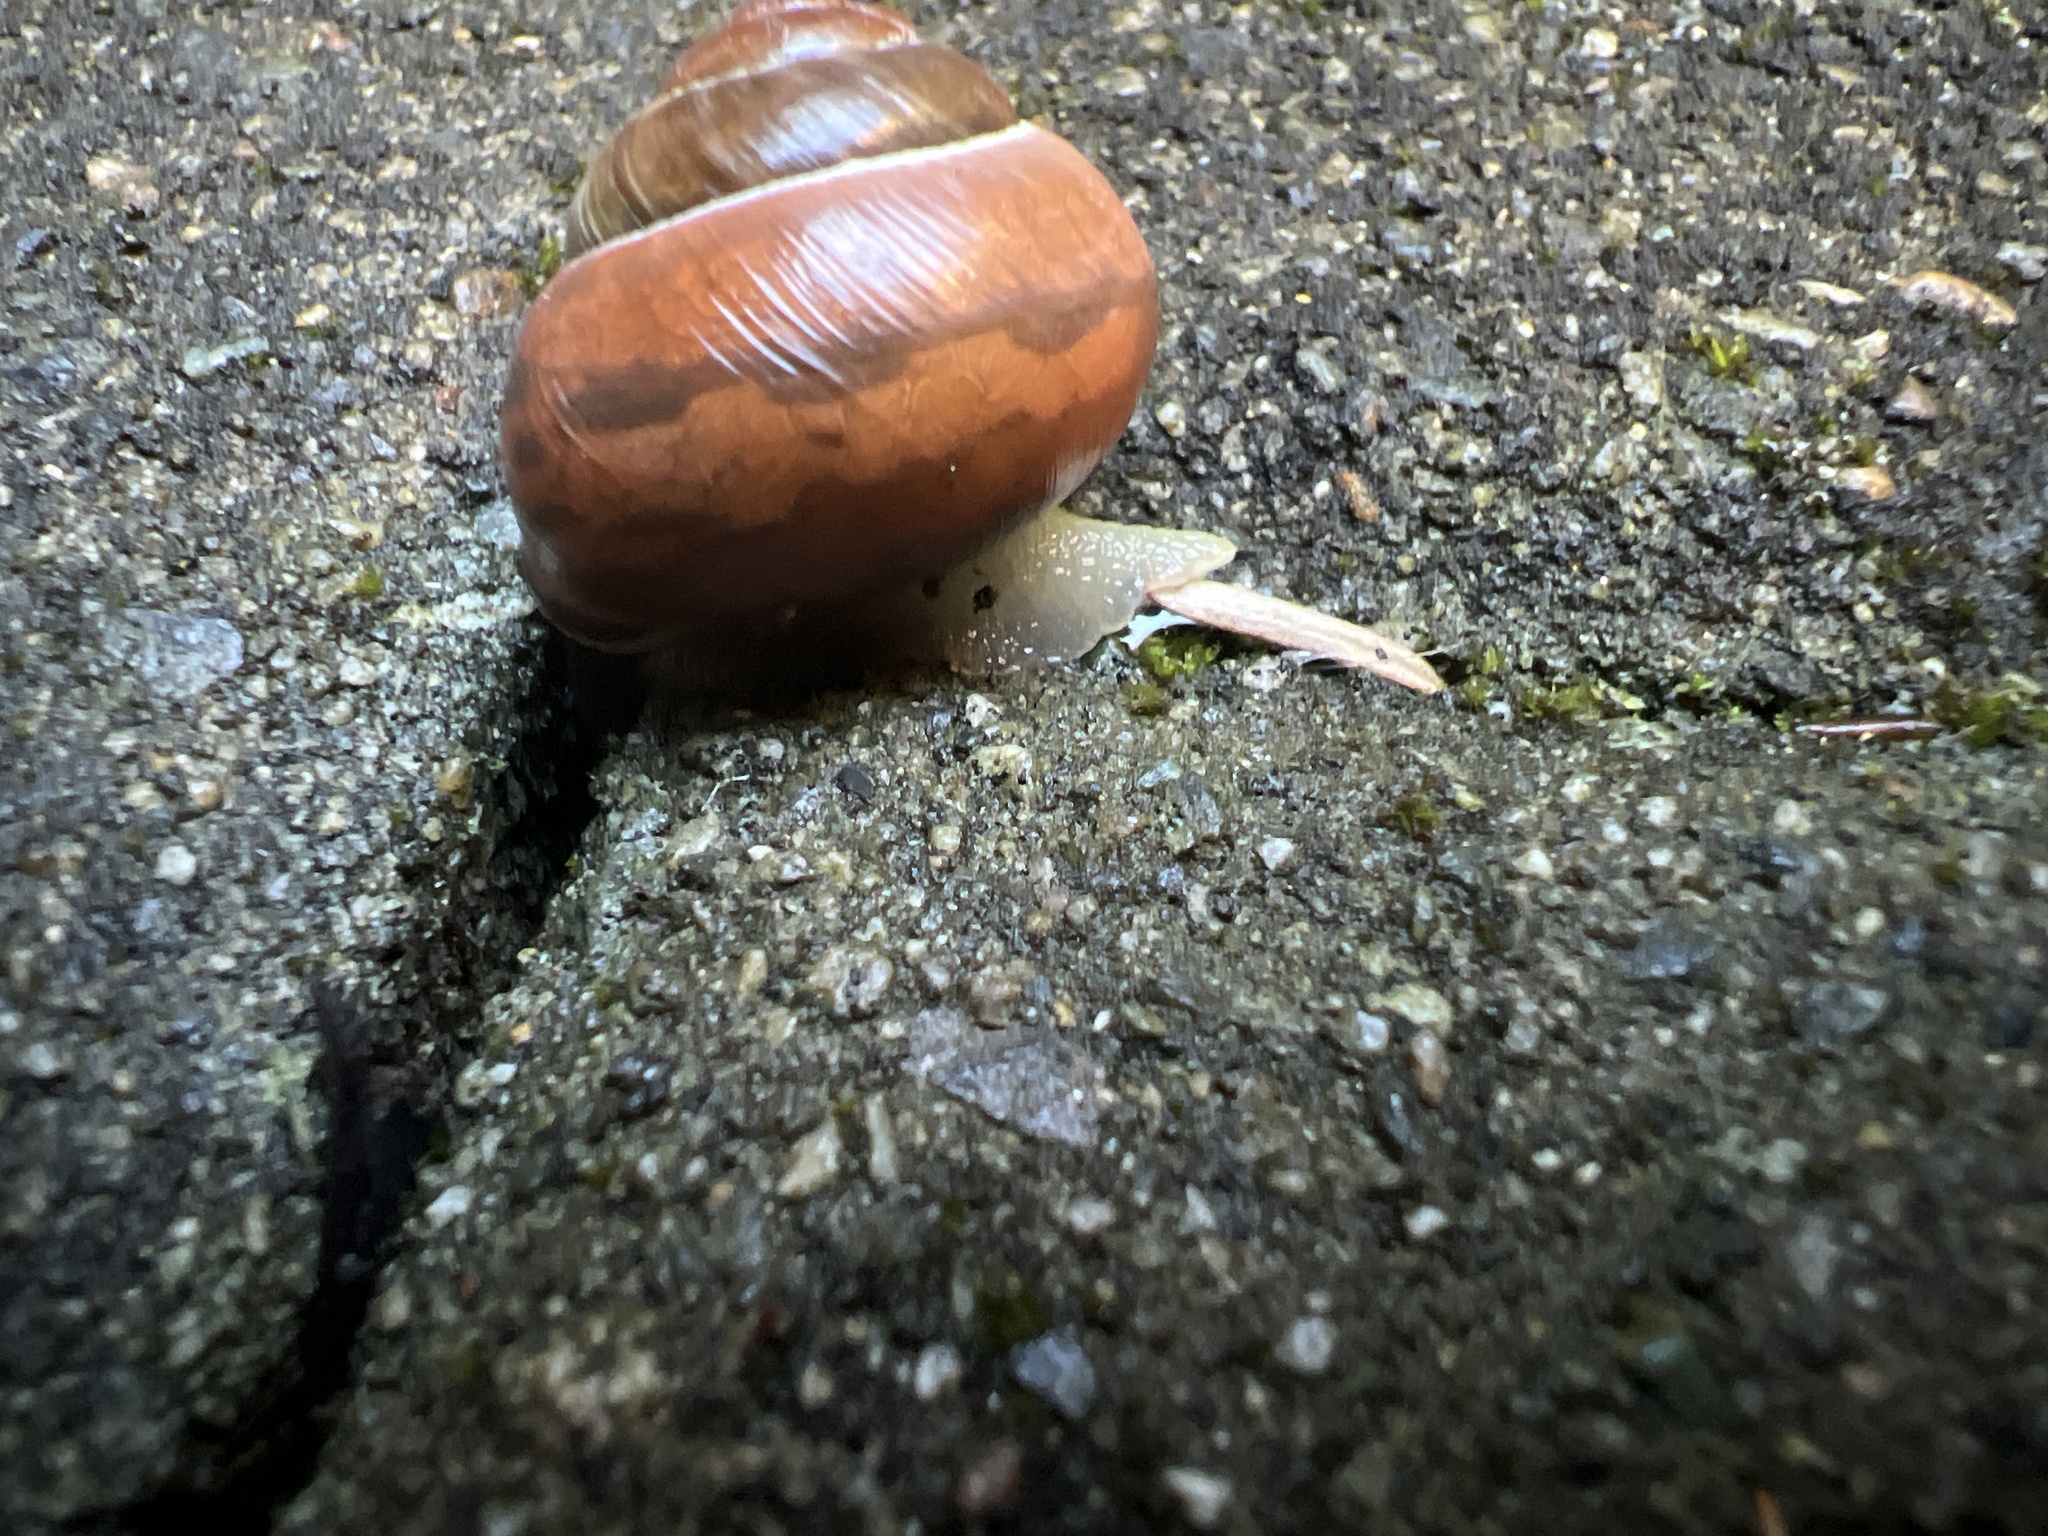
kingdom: Animalia
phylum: Mollusca
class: Gastropoda
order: Stylommatophora
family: Helicidae
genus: Cepaea
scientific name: Cepaea nemoralis
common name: Grovesnail
